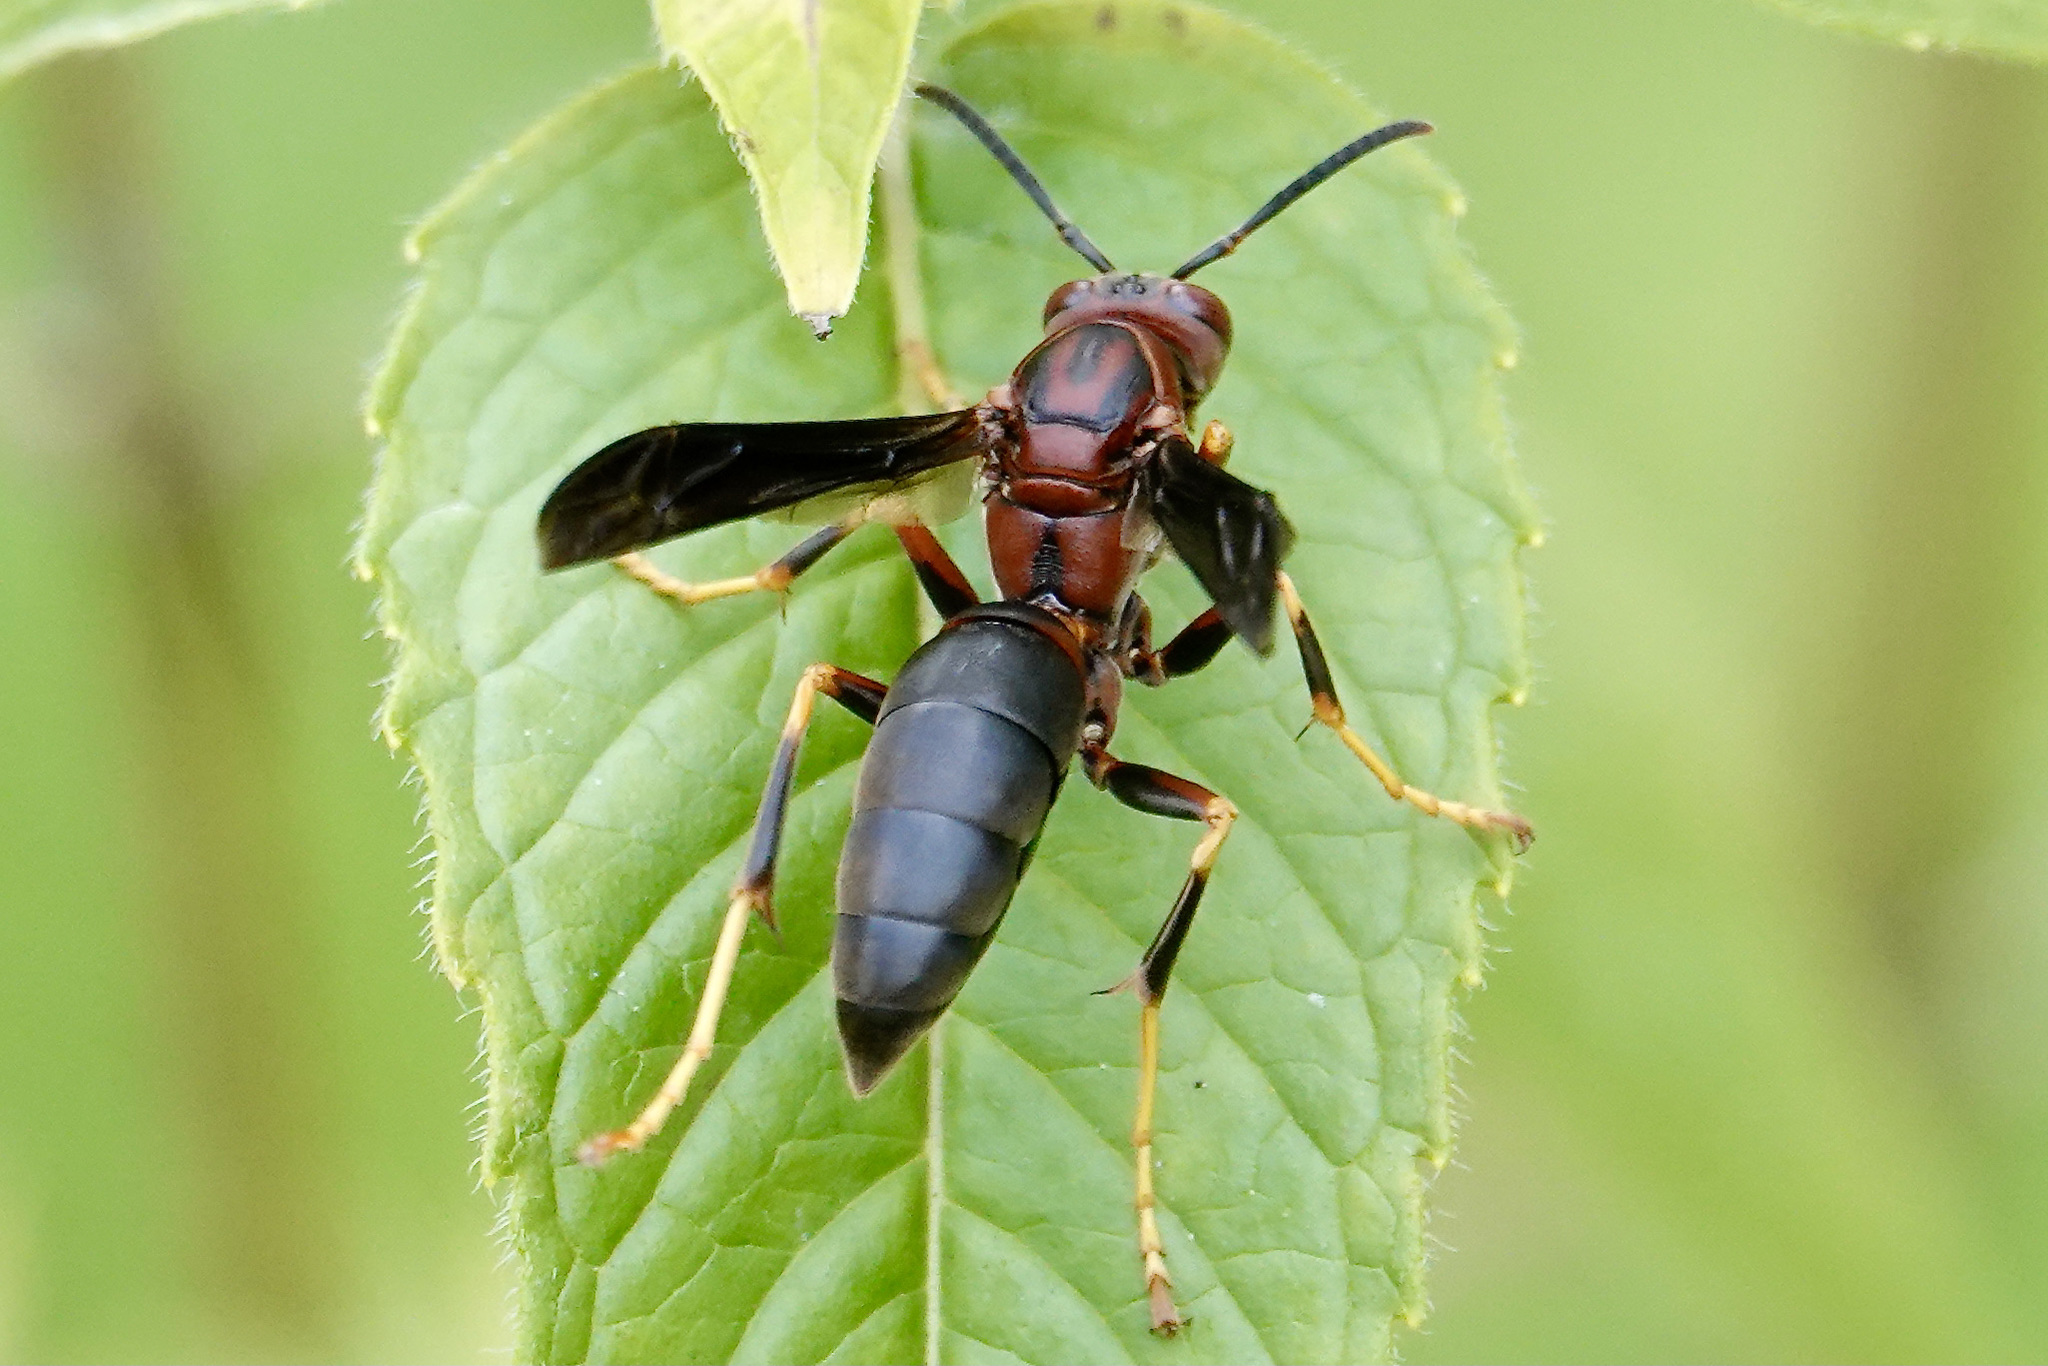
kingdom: Animalia
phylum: Arthropoda
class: Insecta
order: Hymenoptera
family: Eumenidae
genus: Polistes
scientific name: Polistes metricus
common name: Metric paper wasp
